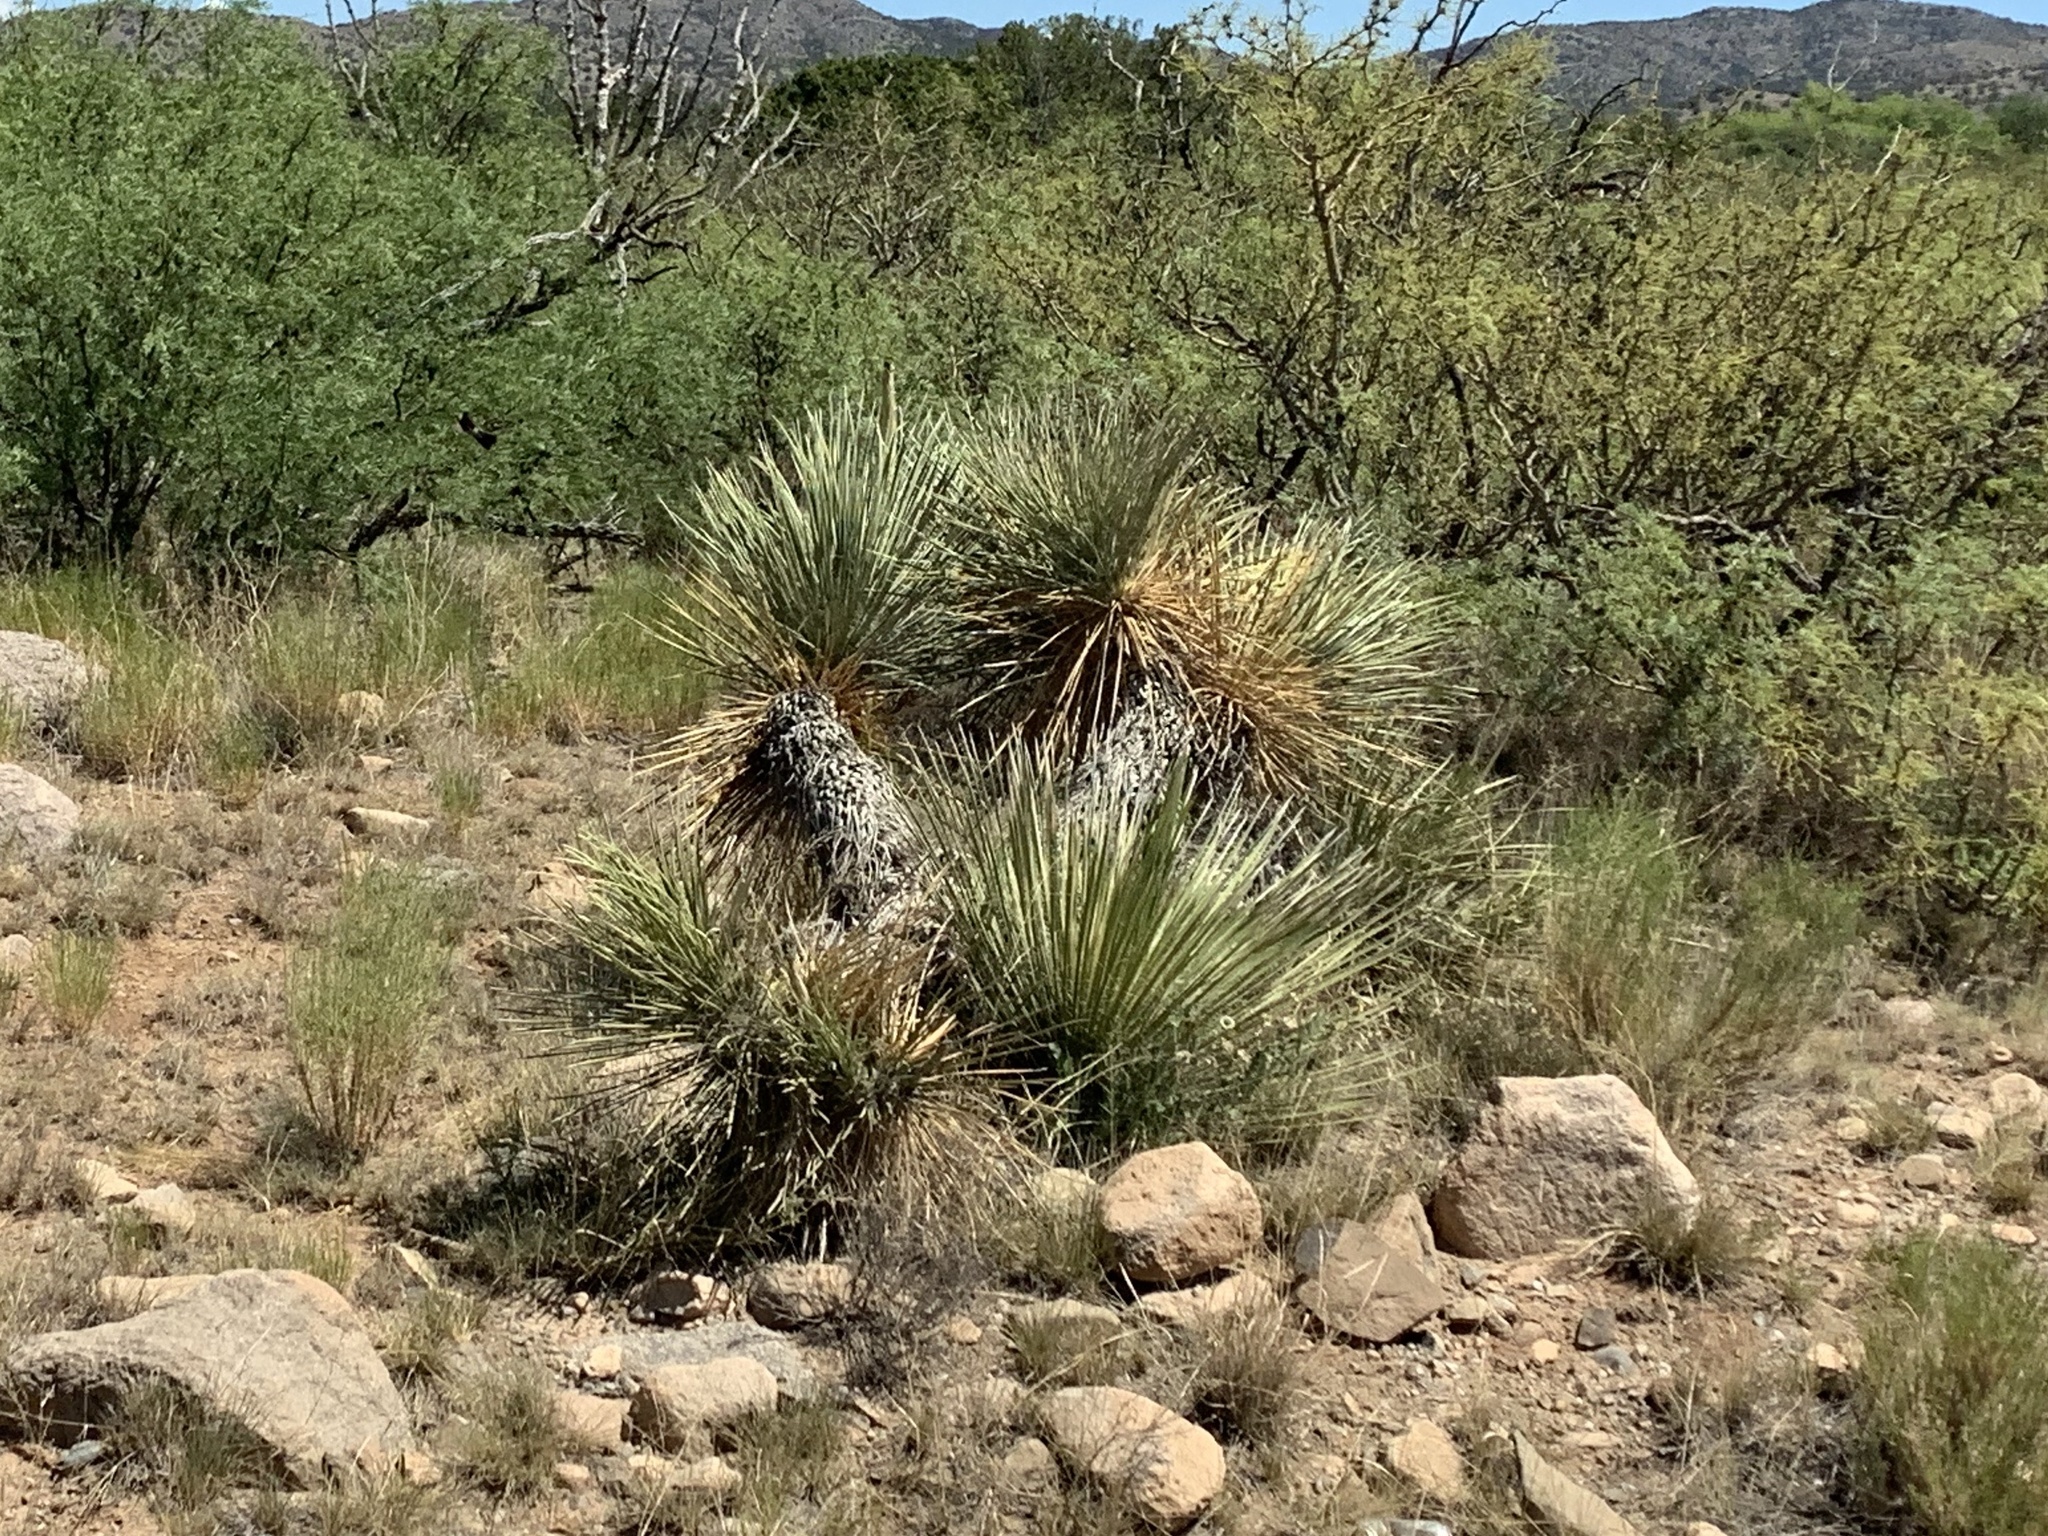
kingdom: Plantae
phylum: Tracheophyta
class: Liliopsida
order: Asparagales
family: Asparagaceae
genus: Yucca
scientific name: Yucca elata
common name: Palmella
